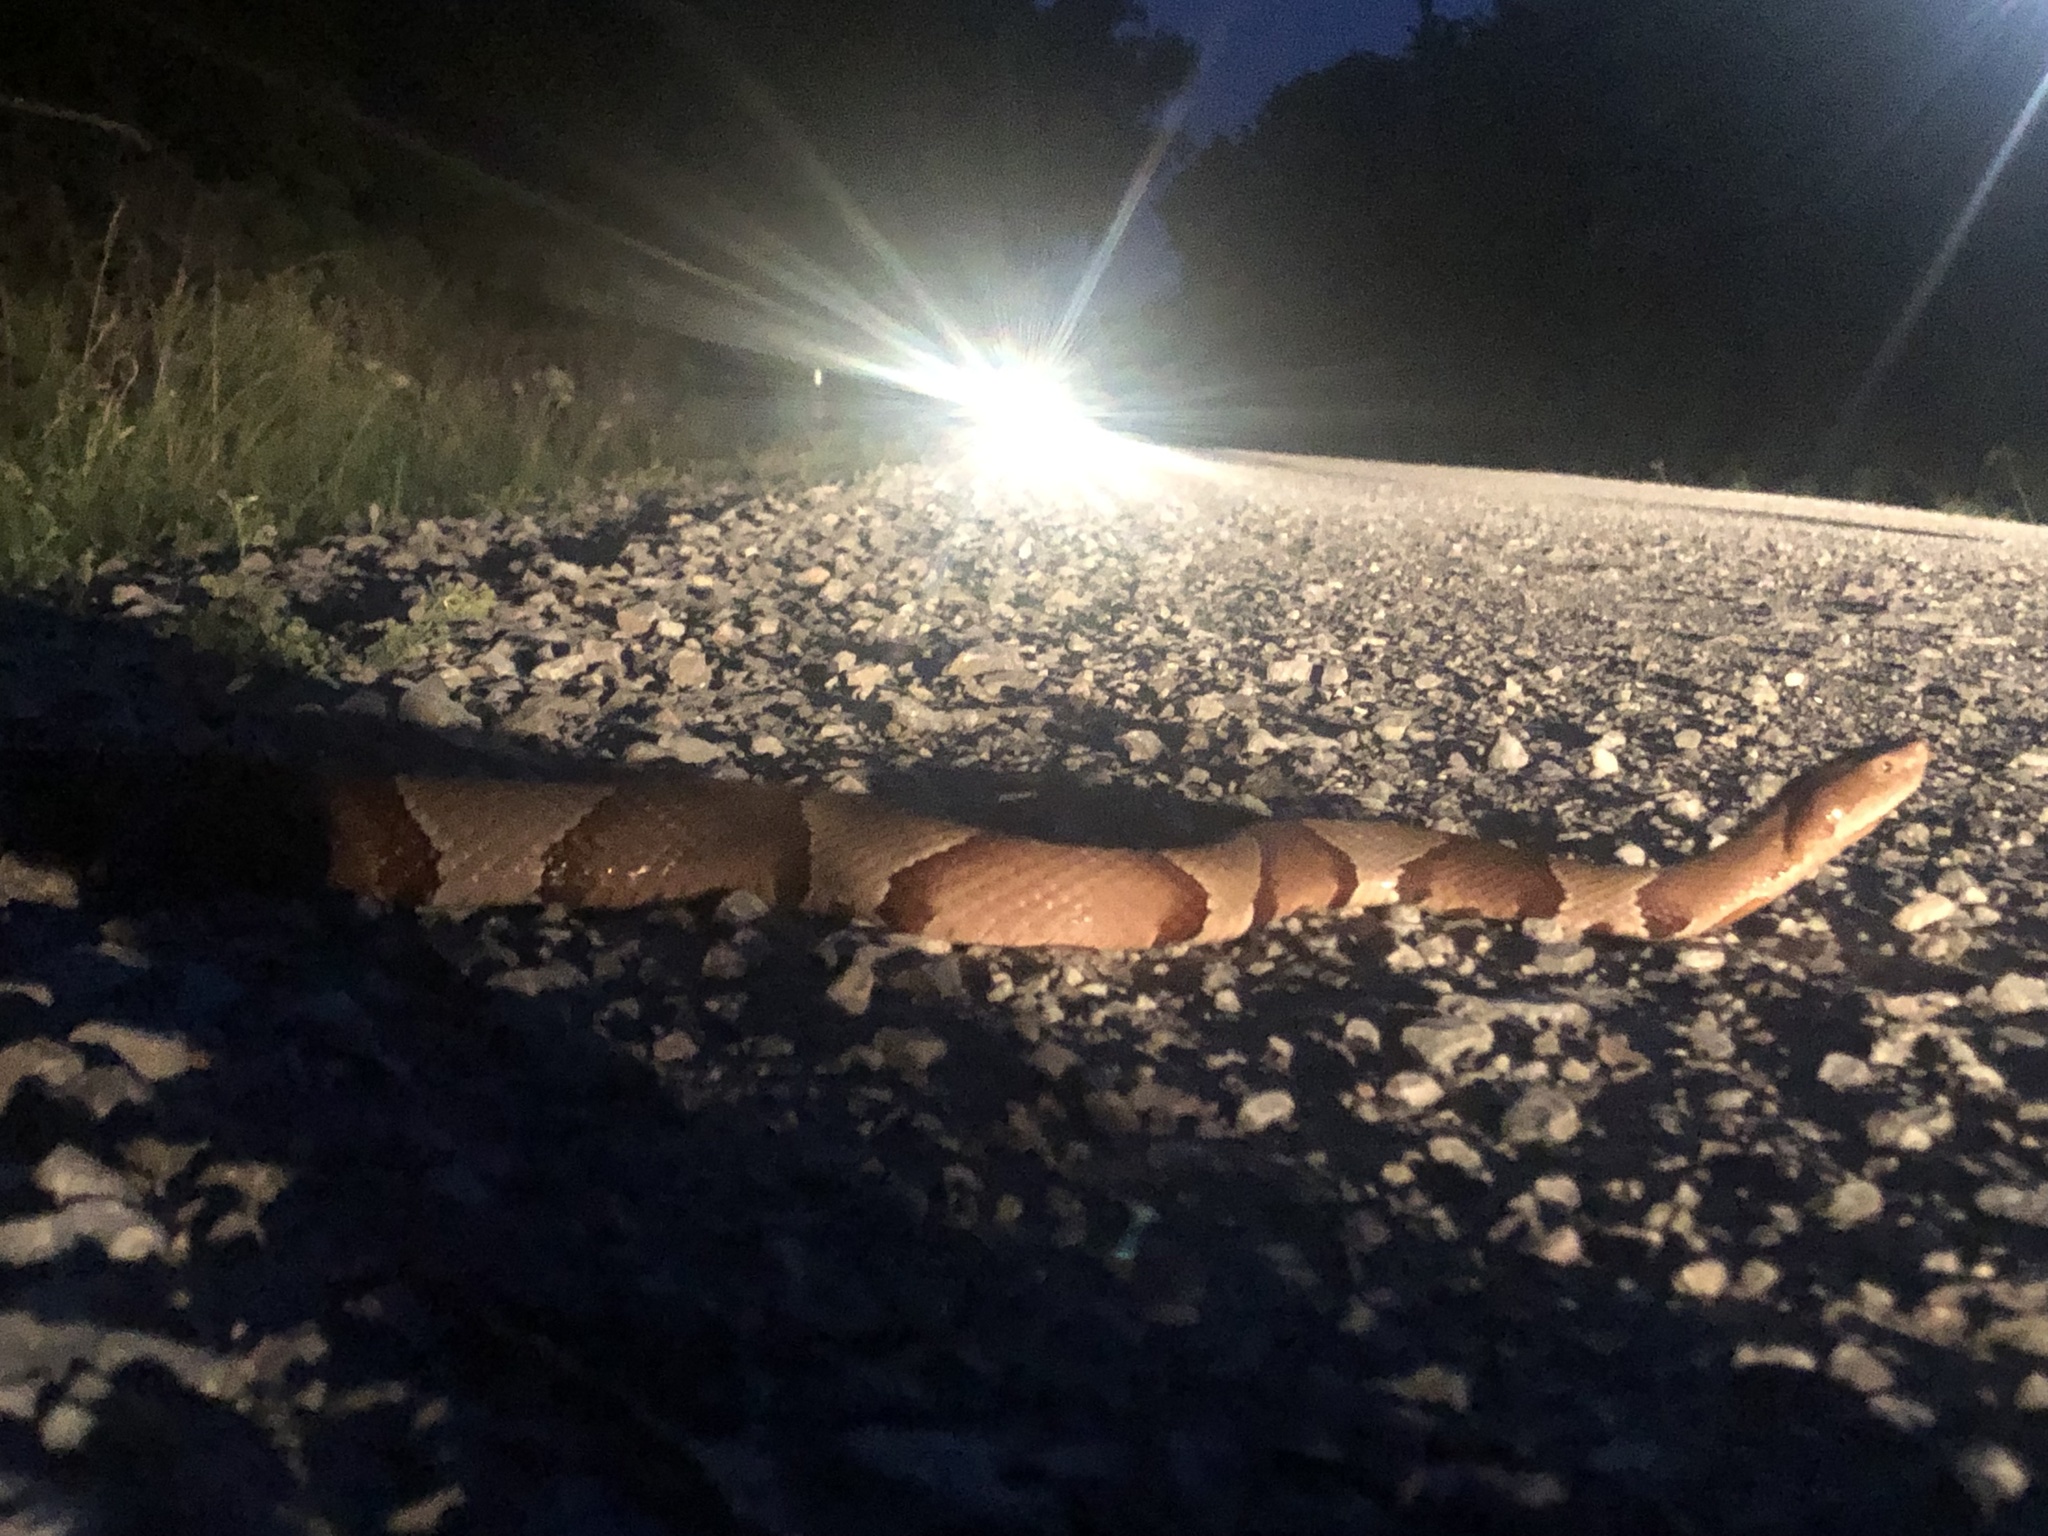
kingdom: Animalia
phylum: Chordata
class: Squamata
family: Viperidae
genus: Agkistrodon
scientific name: Agkistrodon laticinctus
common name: Broad-banded copperhead
